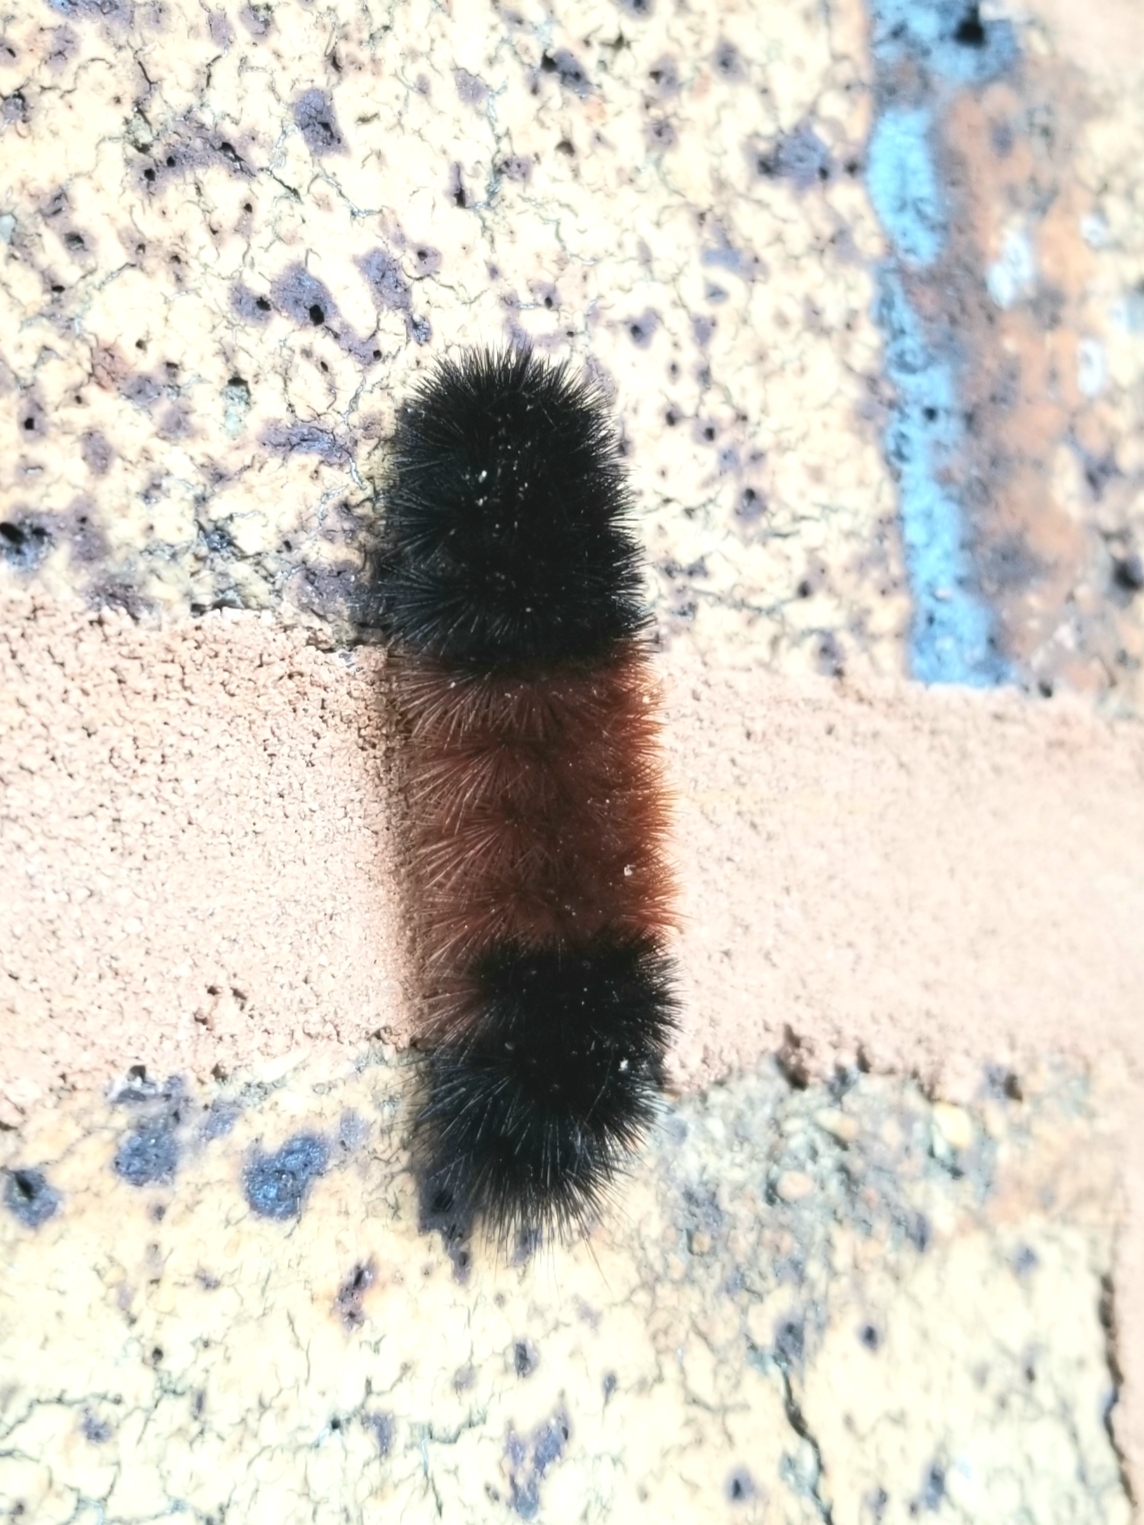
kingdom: Animalia
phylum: Arthropoda
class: Insecta
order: Lepidoptera
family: Erebidae
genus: Pyrrharctia
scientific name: Pyrrharctia isabella
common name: Isabella tiger moth
